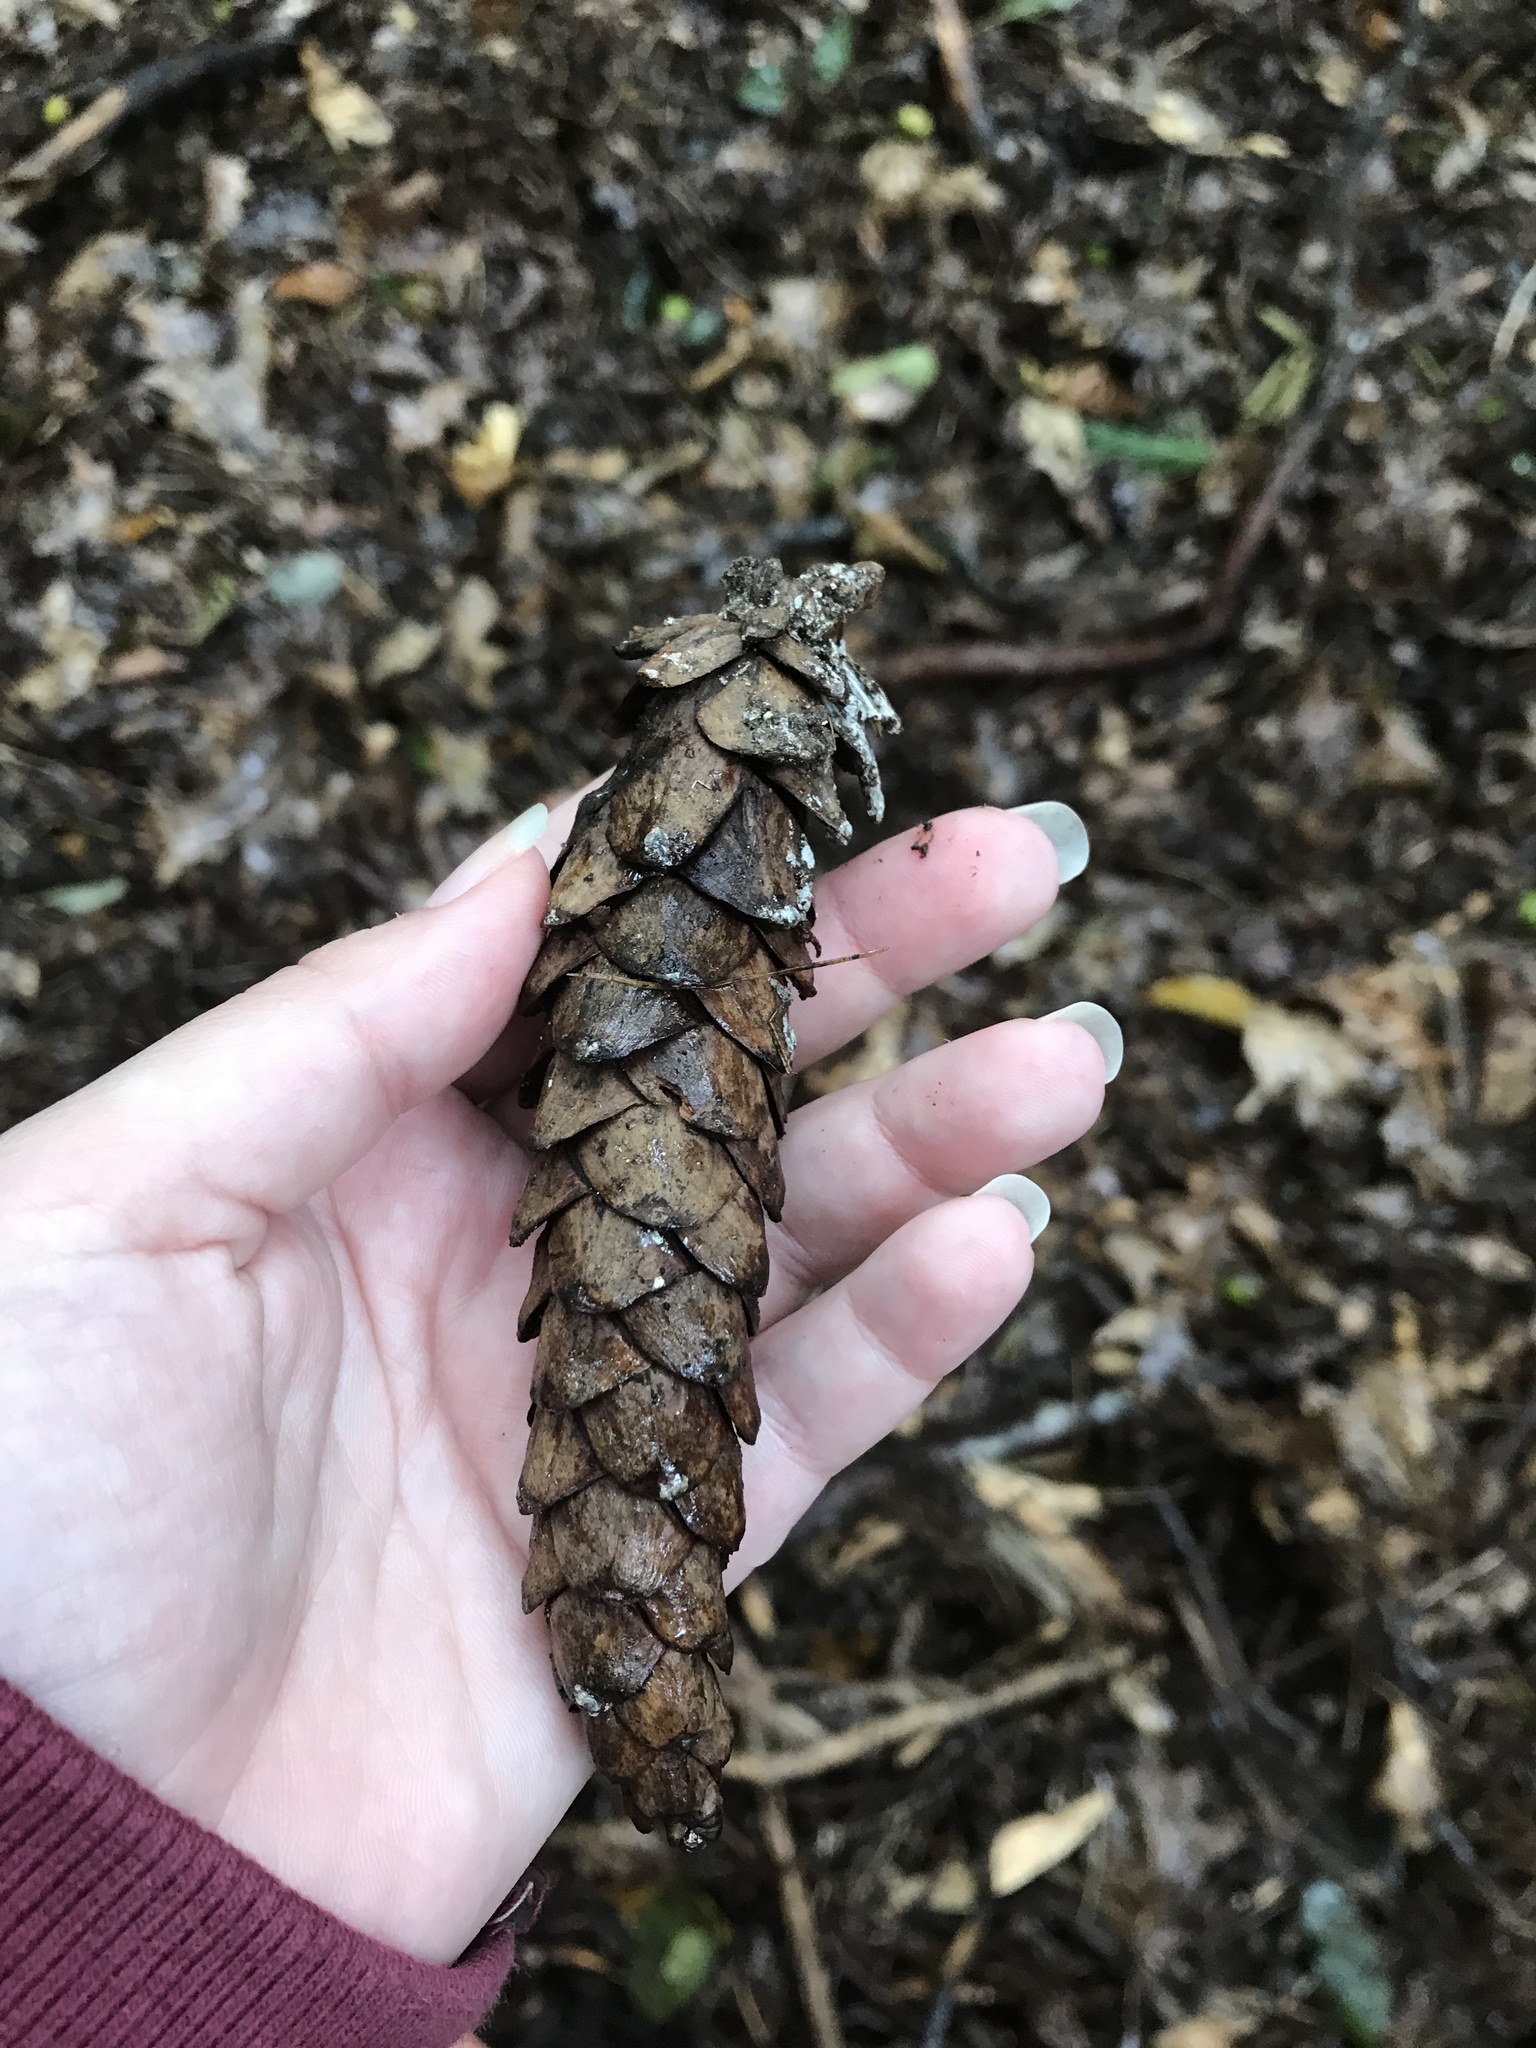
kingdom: Plantae
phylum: Tracheophyta
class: Pinopsida
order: Pinales
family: Pinaceae
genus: Pinus
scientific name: Pinus strobus
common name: Weymouth pine
